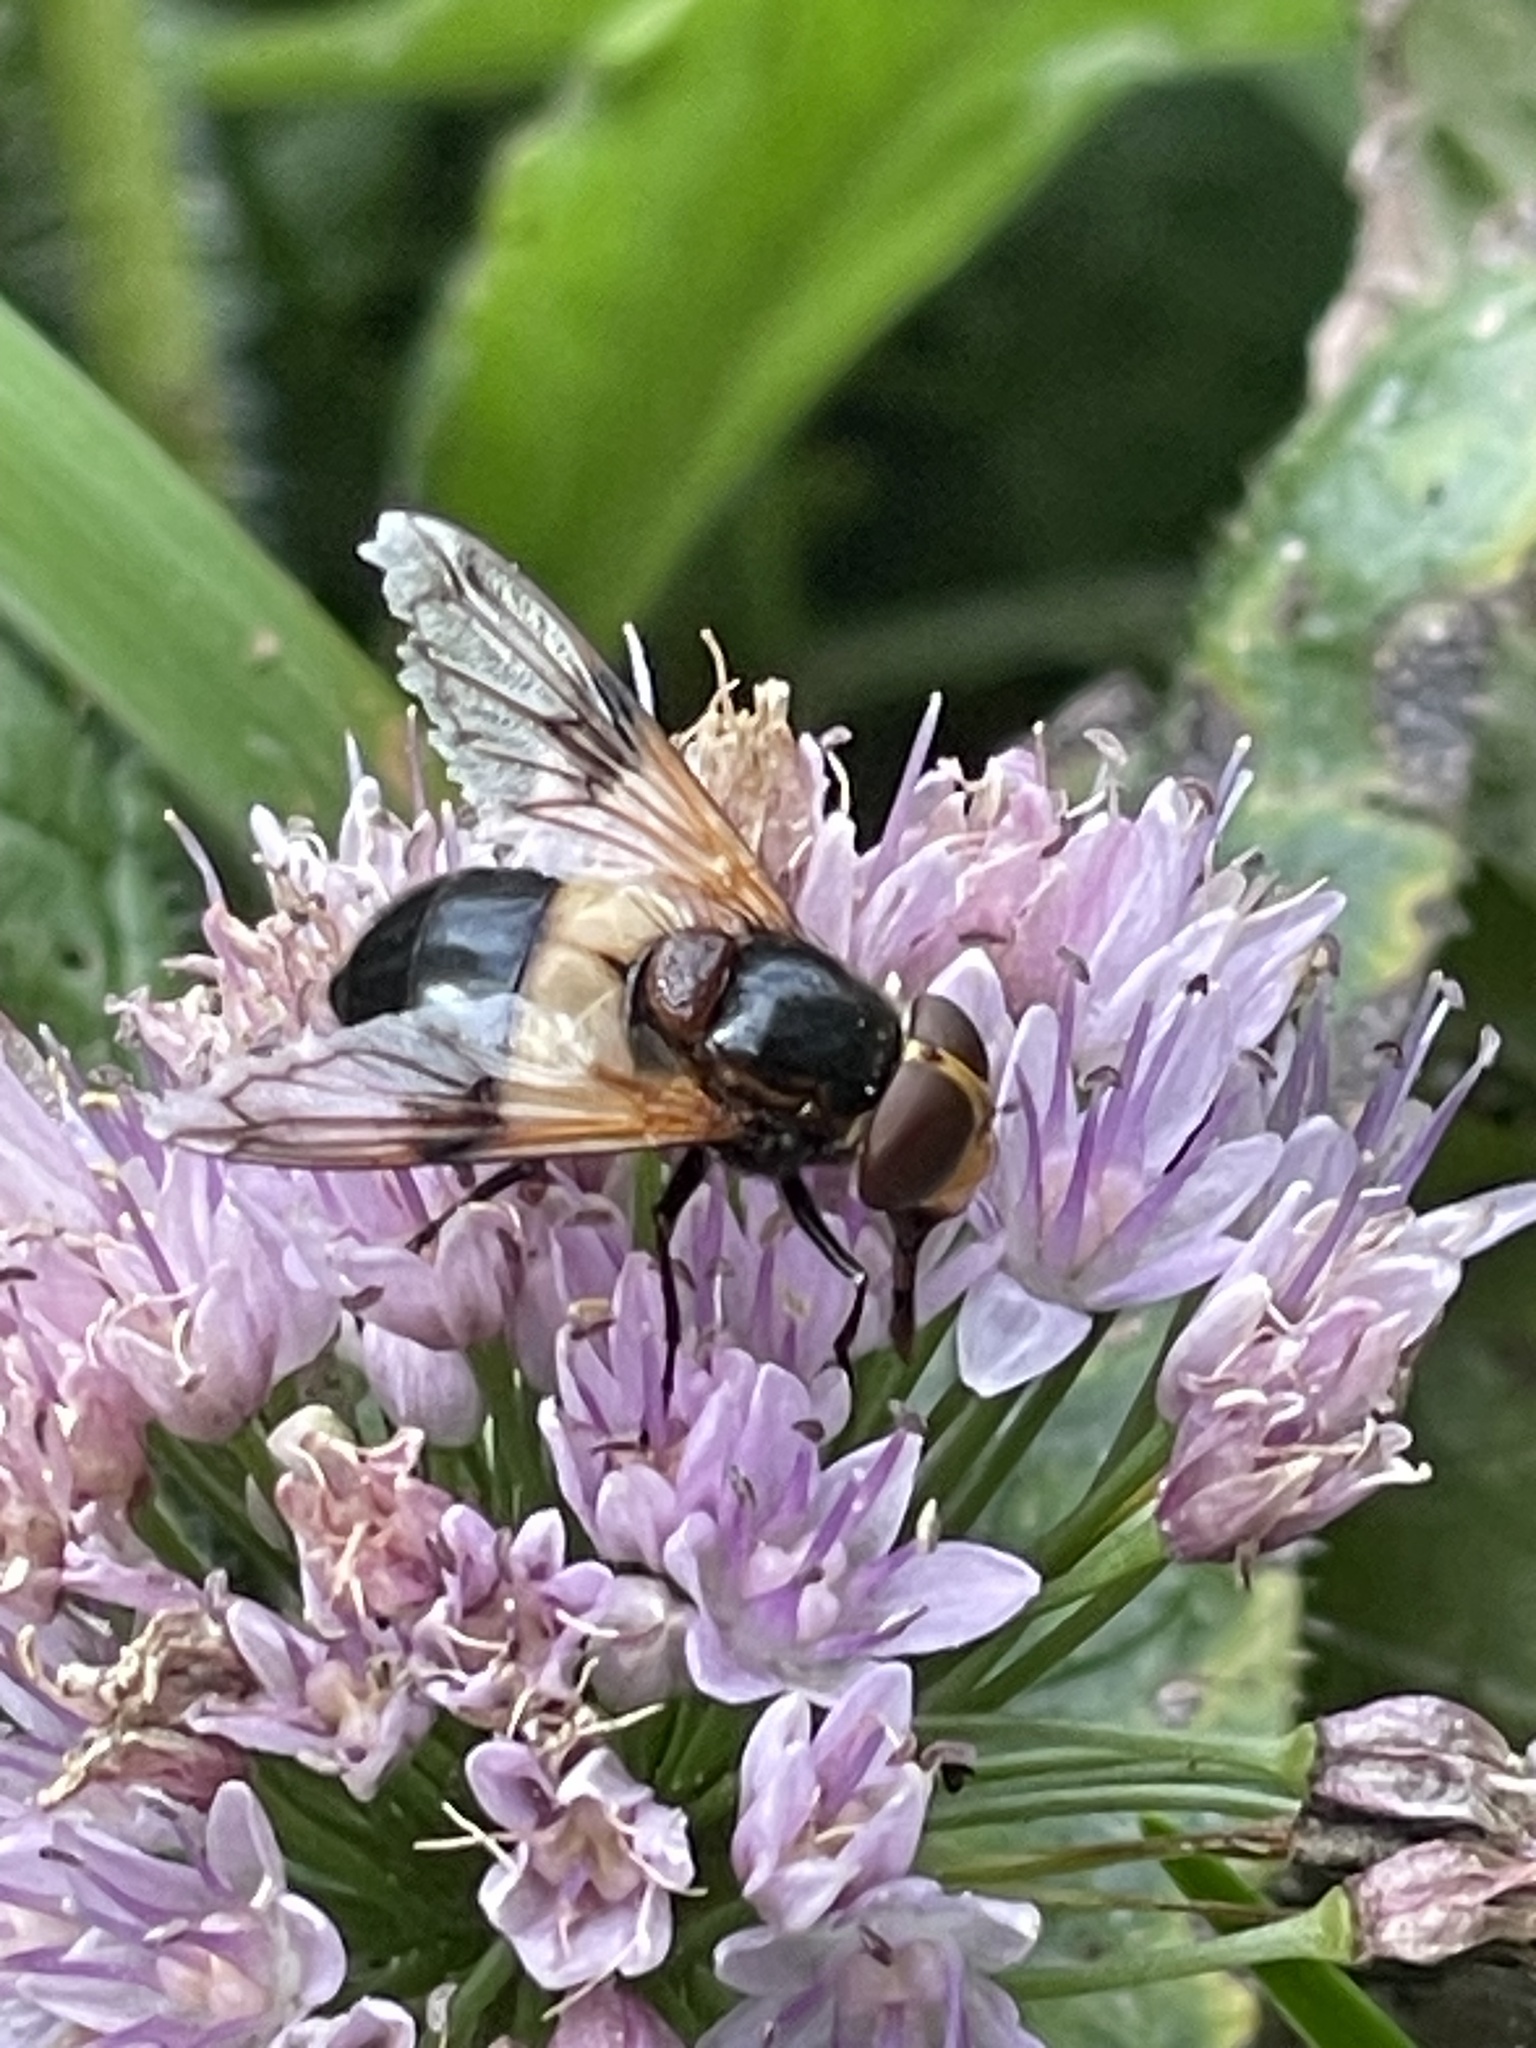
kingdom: Animalia
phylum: Arthropoda
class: Insecta
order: Diptera
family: Syrphidae
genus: Volucella
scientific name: Volucella pellucens
